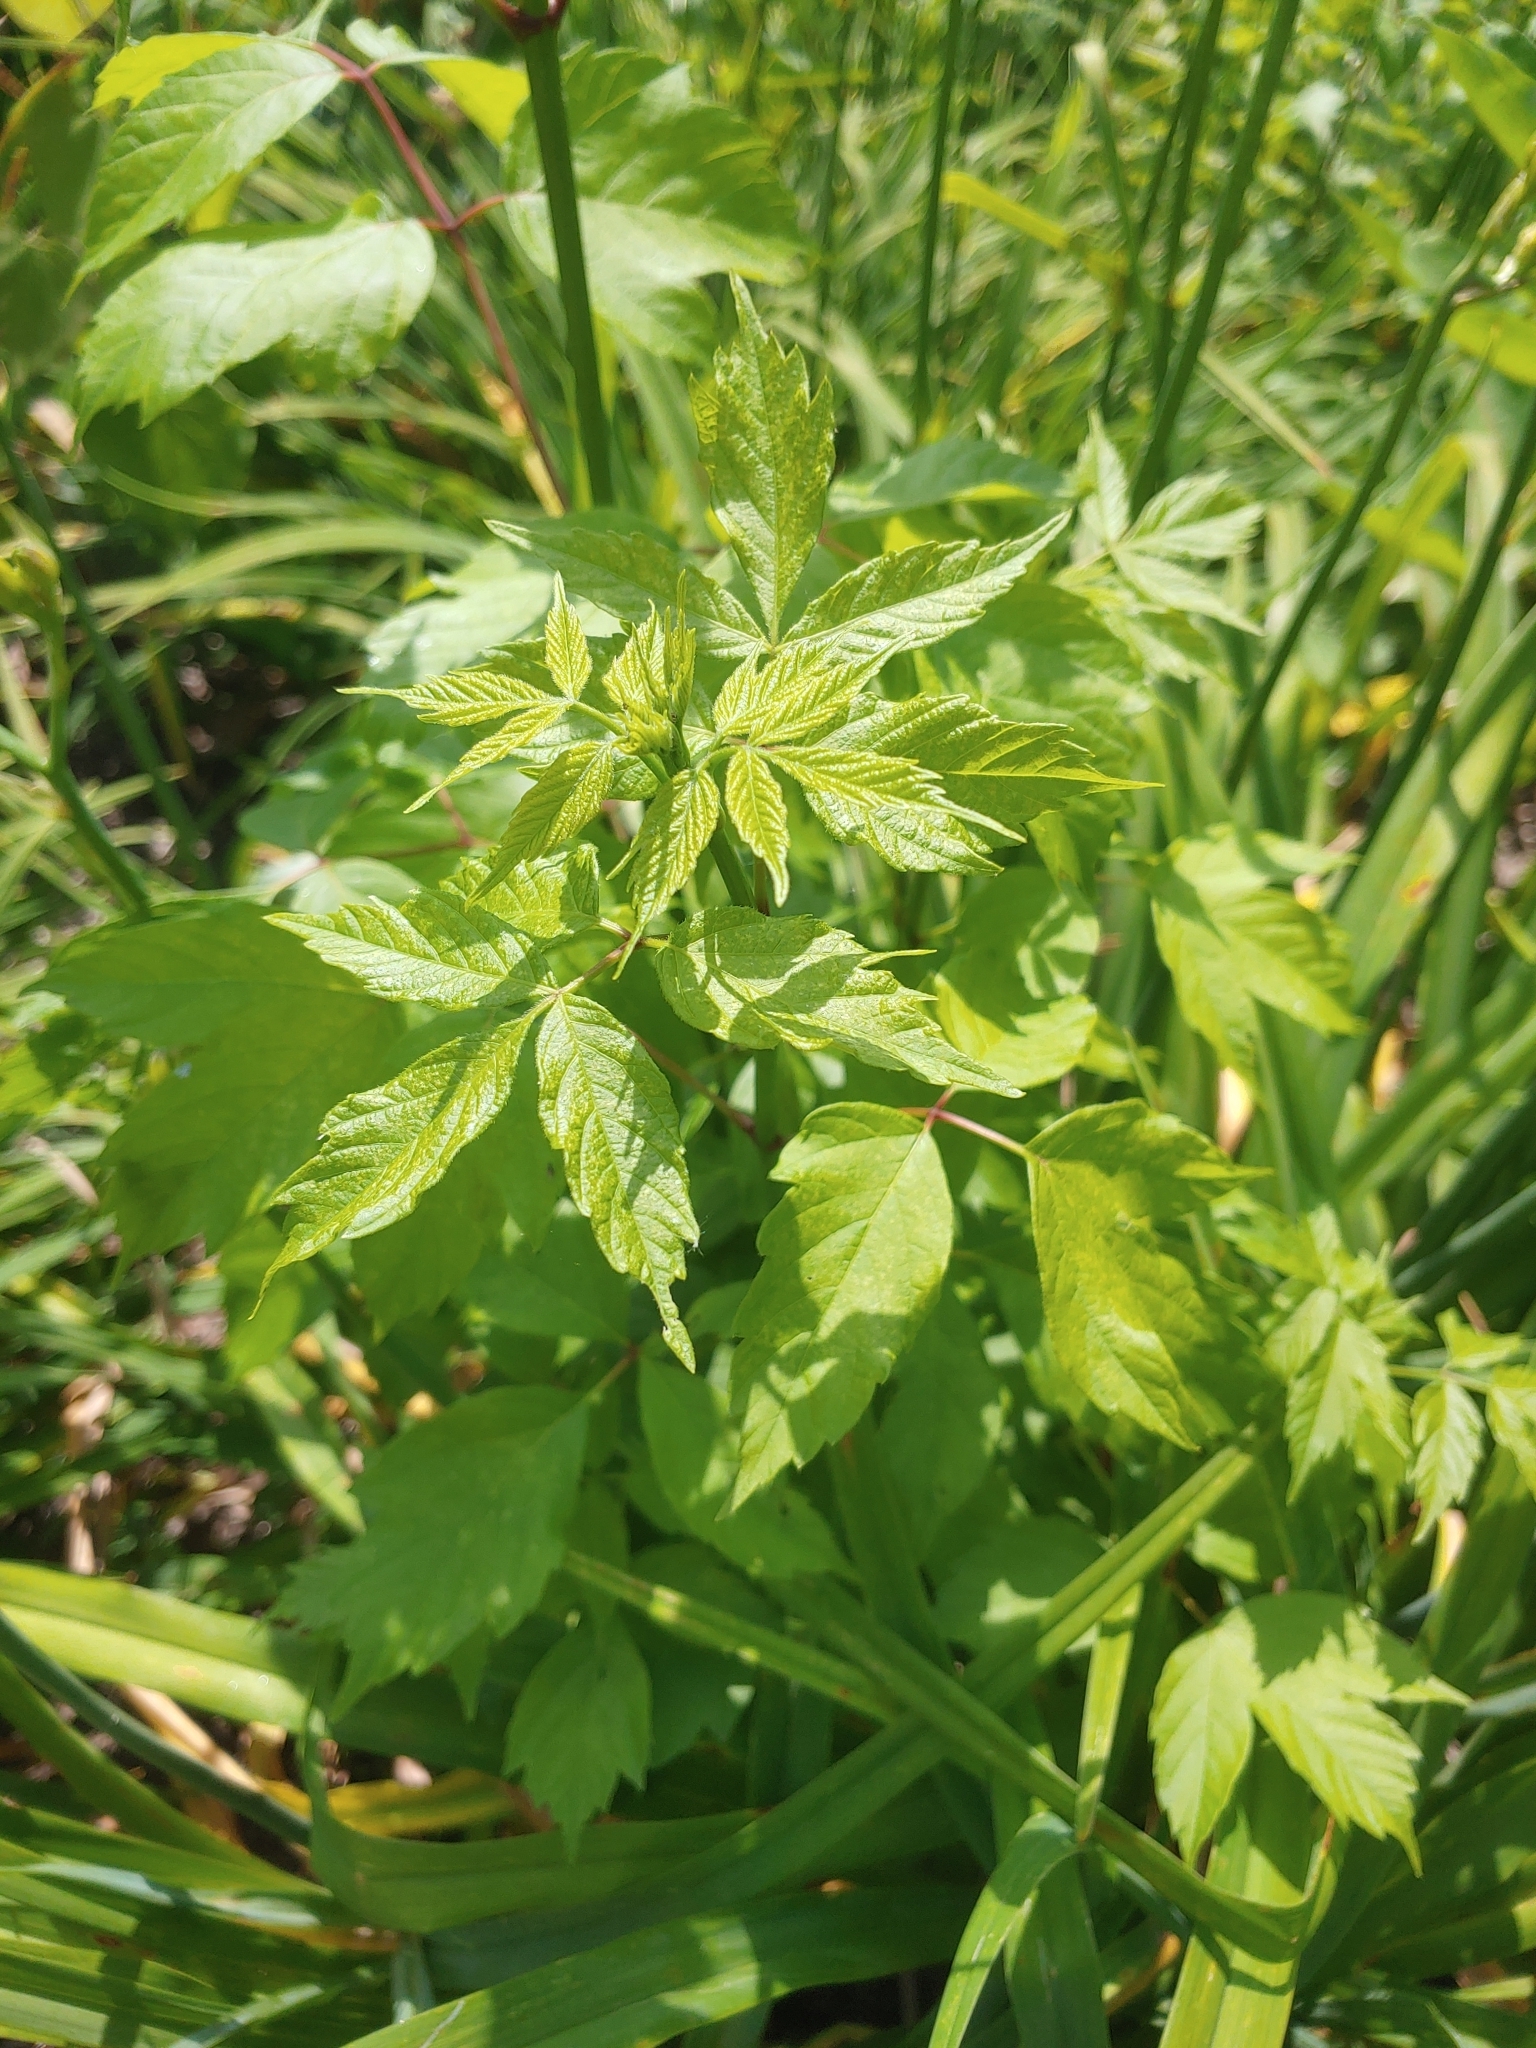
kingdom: Plantae
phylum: Tracheophyta
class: Magnoliopsida
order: Sapindales
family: Sapindaceae
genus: Acer
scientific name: Acer negundo
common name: Ashleaf maple
